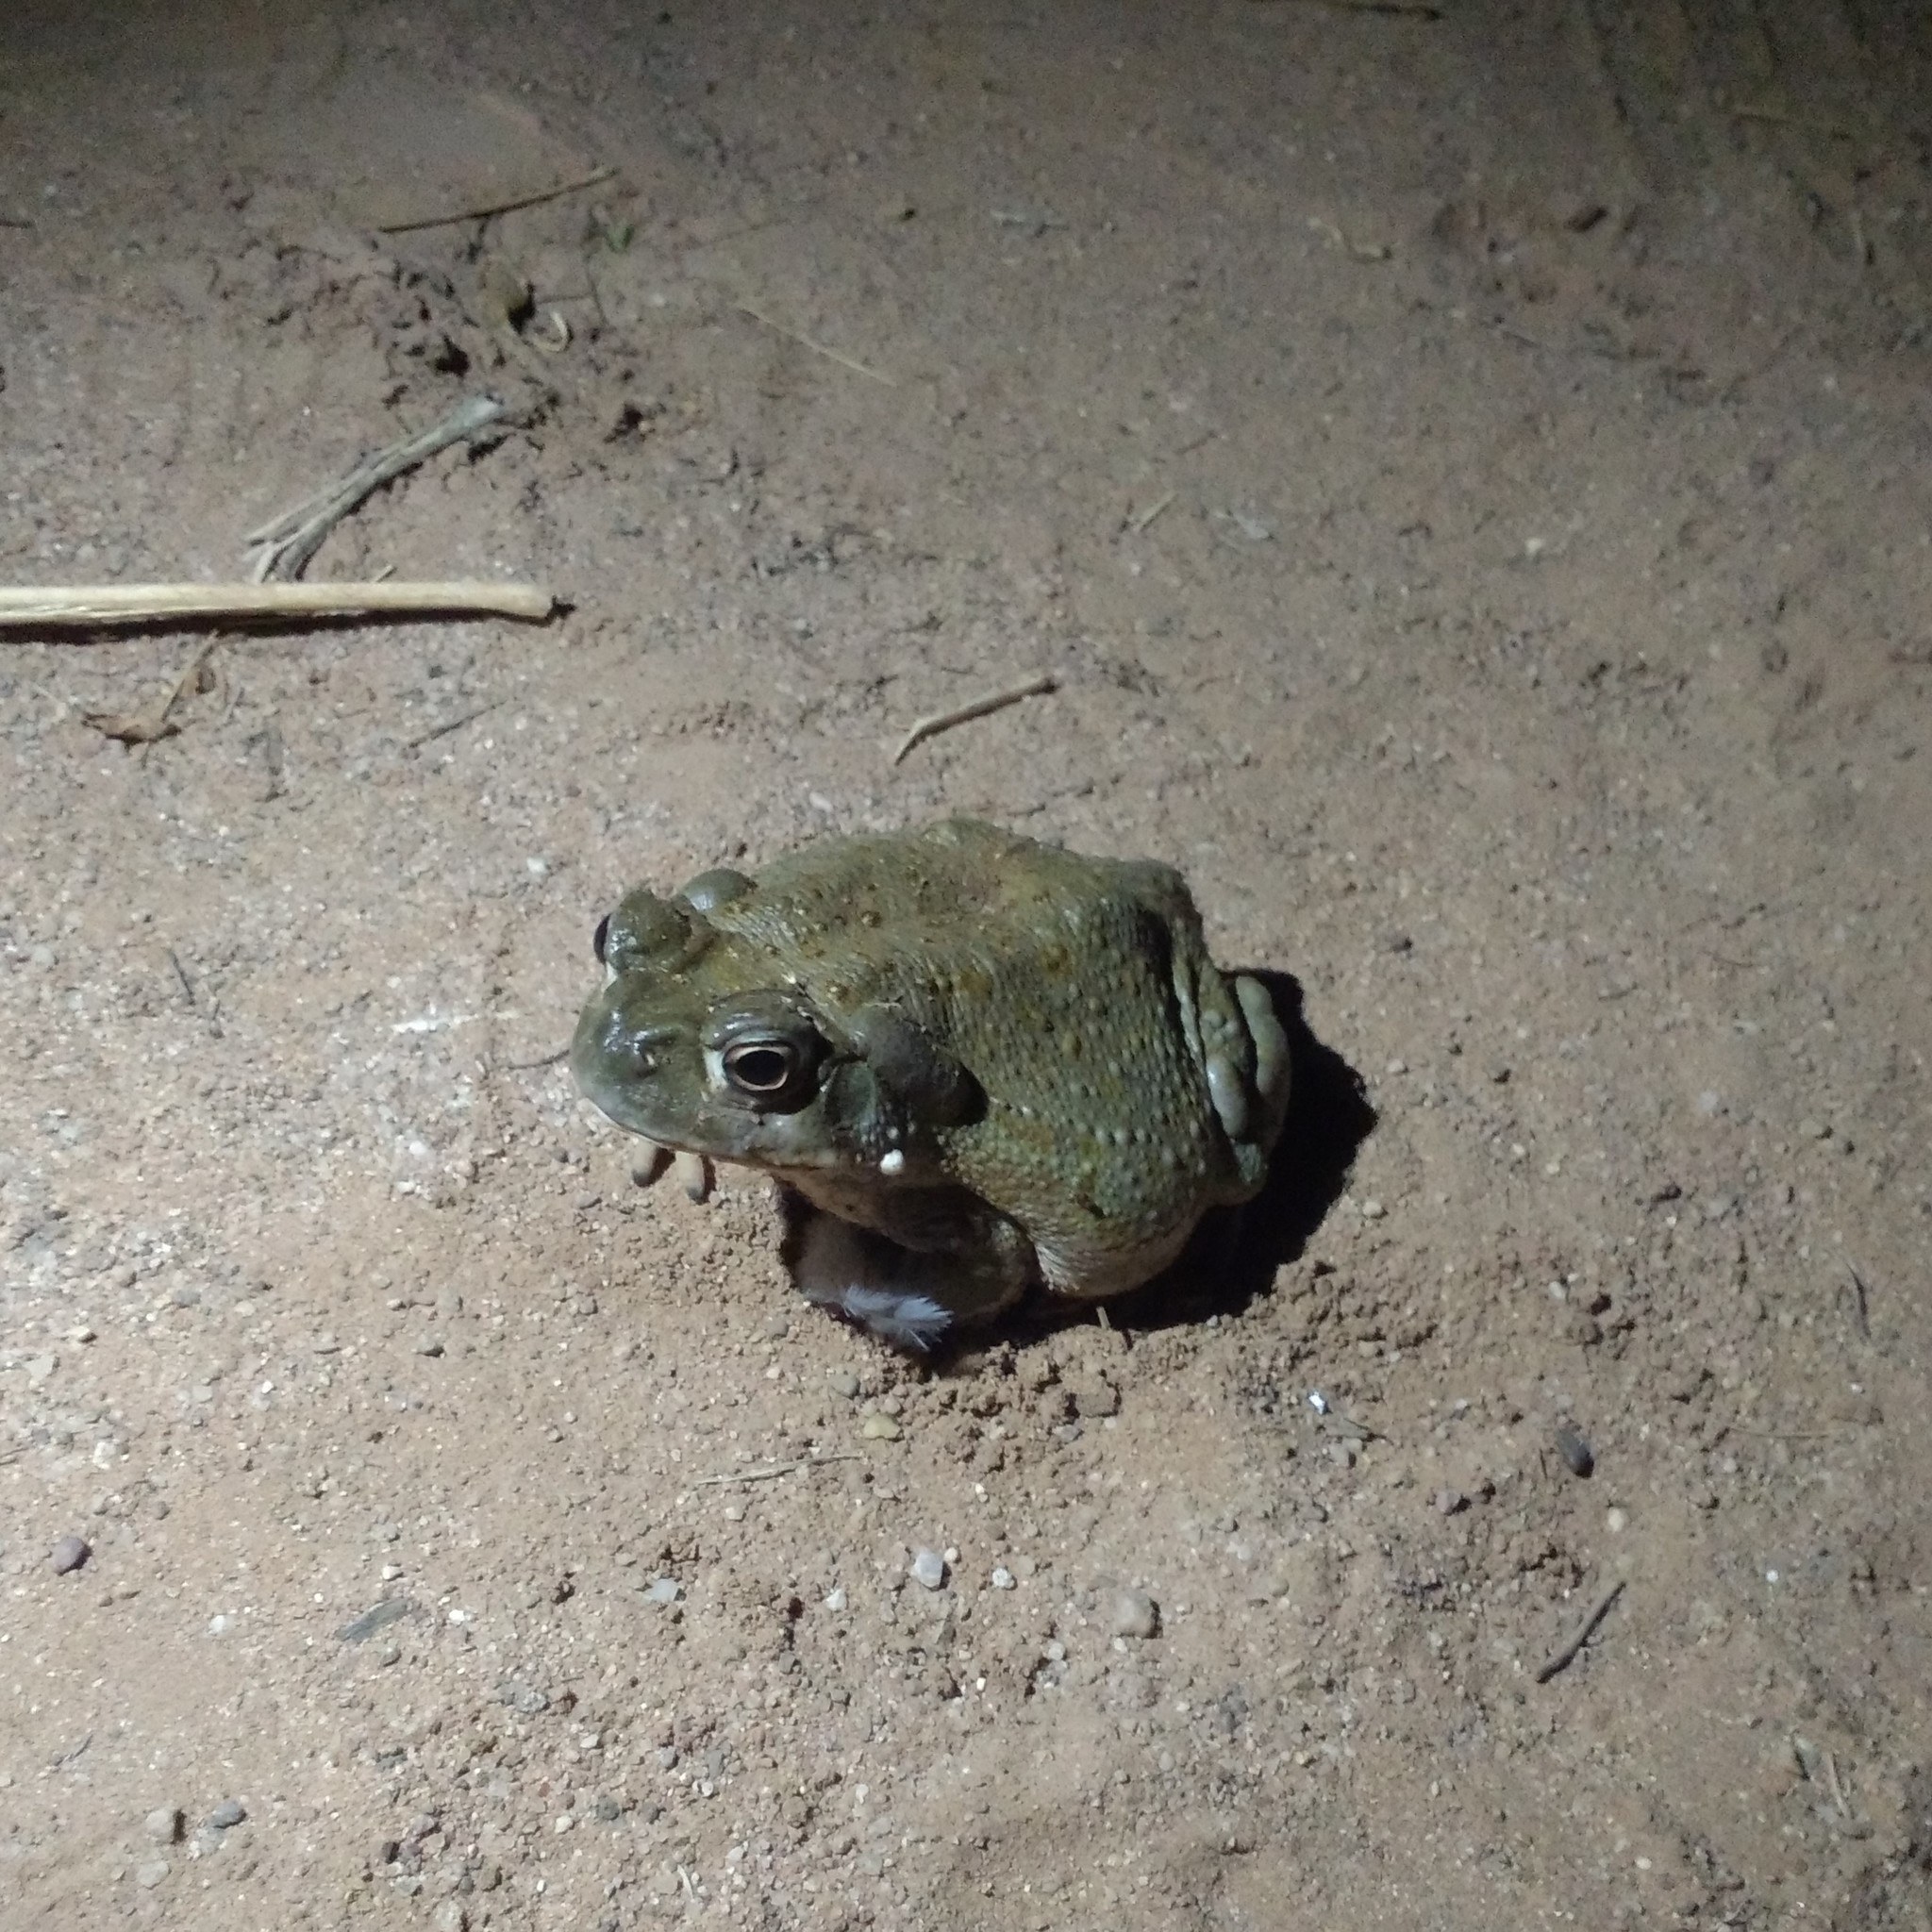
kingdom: Animalia
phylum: Chordata
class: Amphibia
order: Anura
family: Bufonidae
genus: Incilius
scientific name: Incilius alvarius
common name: Sonoran desert toad
